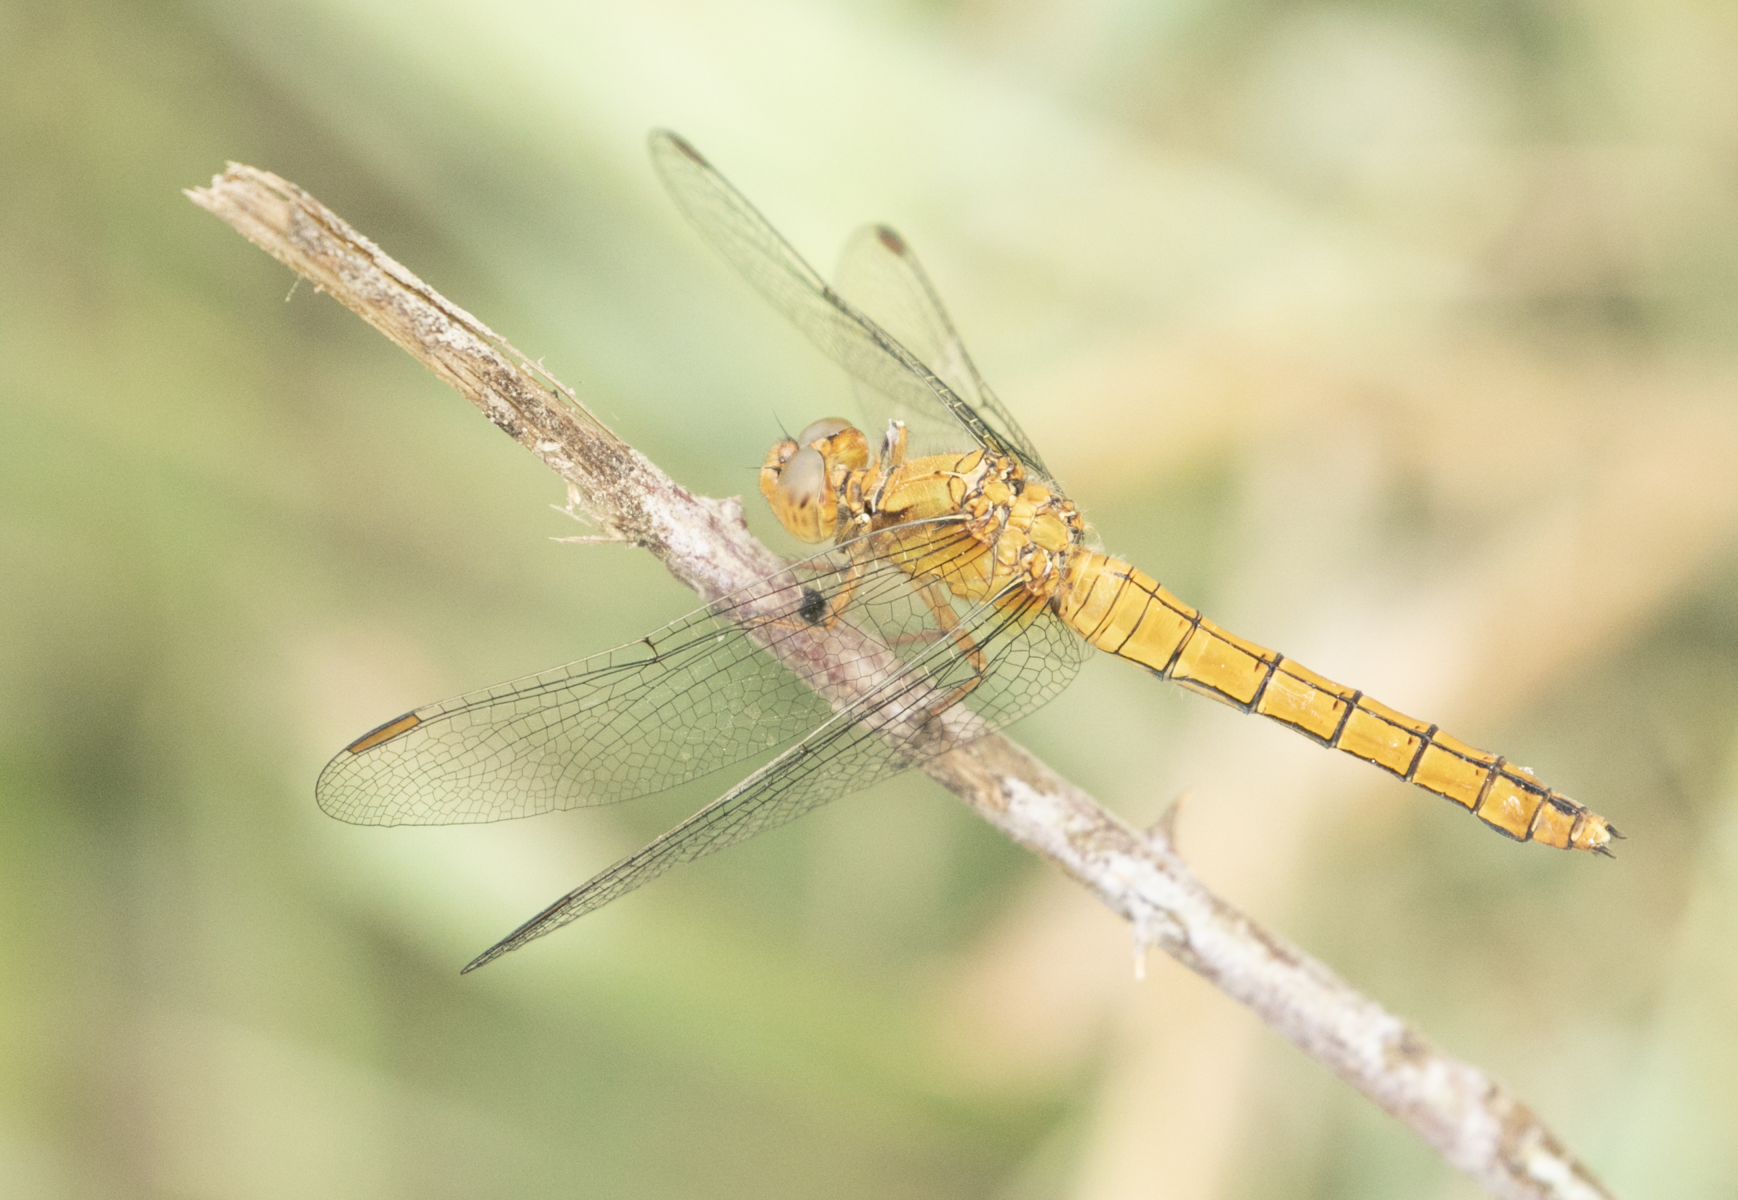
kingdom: Animalia
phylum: Arthropoda
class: Insecta
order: Odonata
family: Libellulidae
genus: Orthetrum
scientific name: Orthetrum coerulescens
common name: Keeled skimmer
